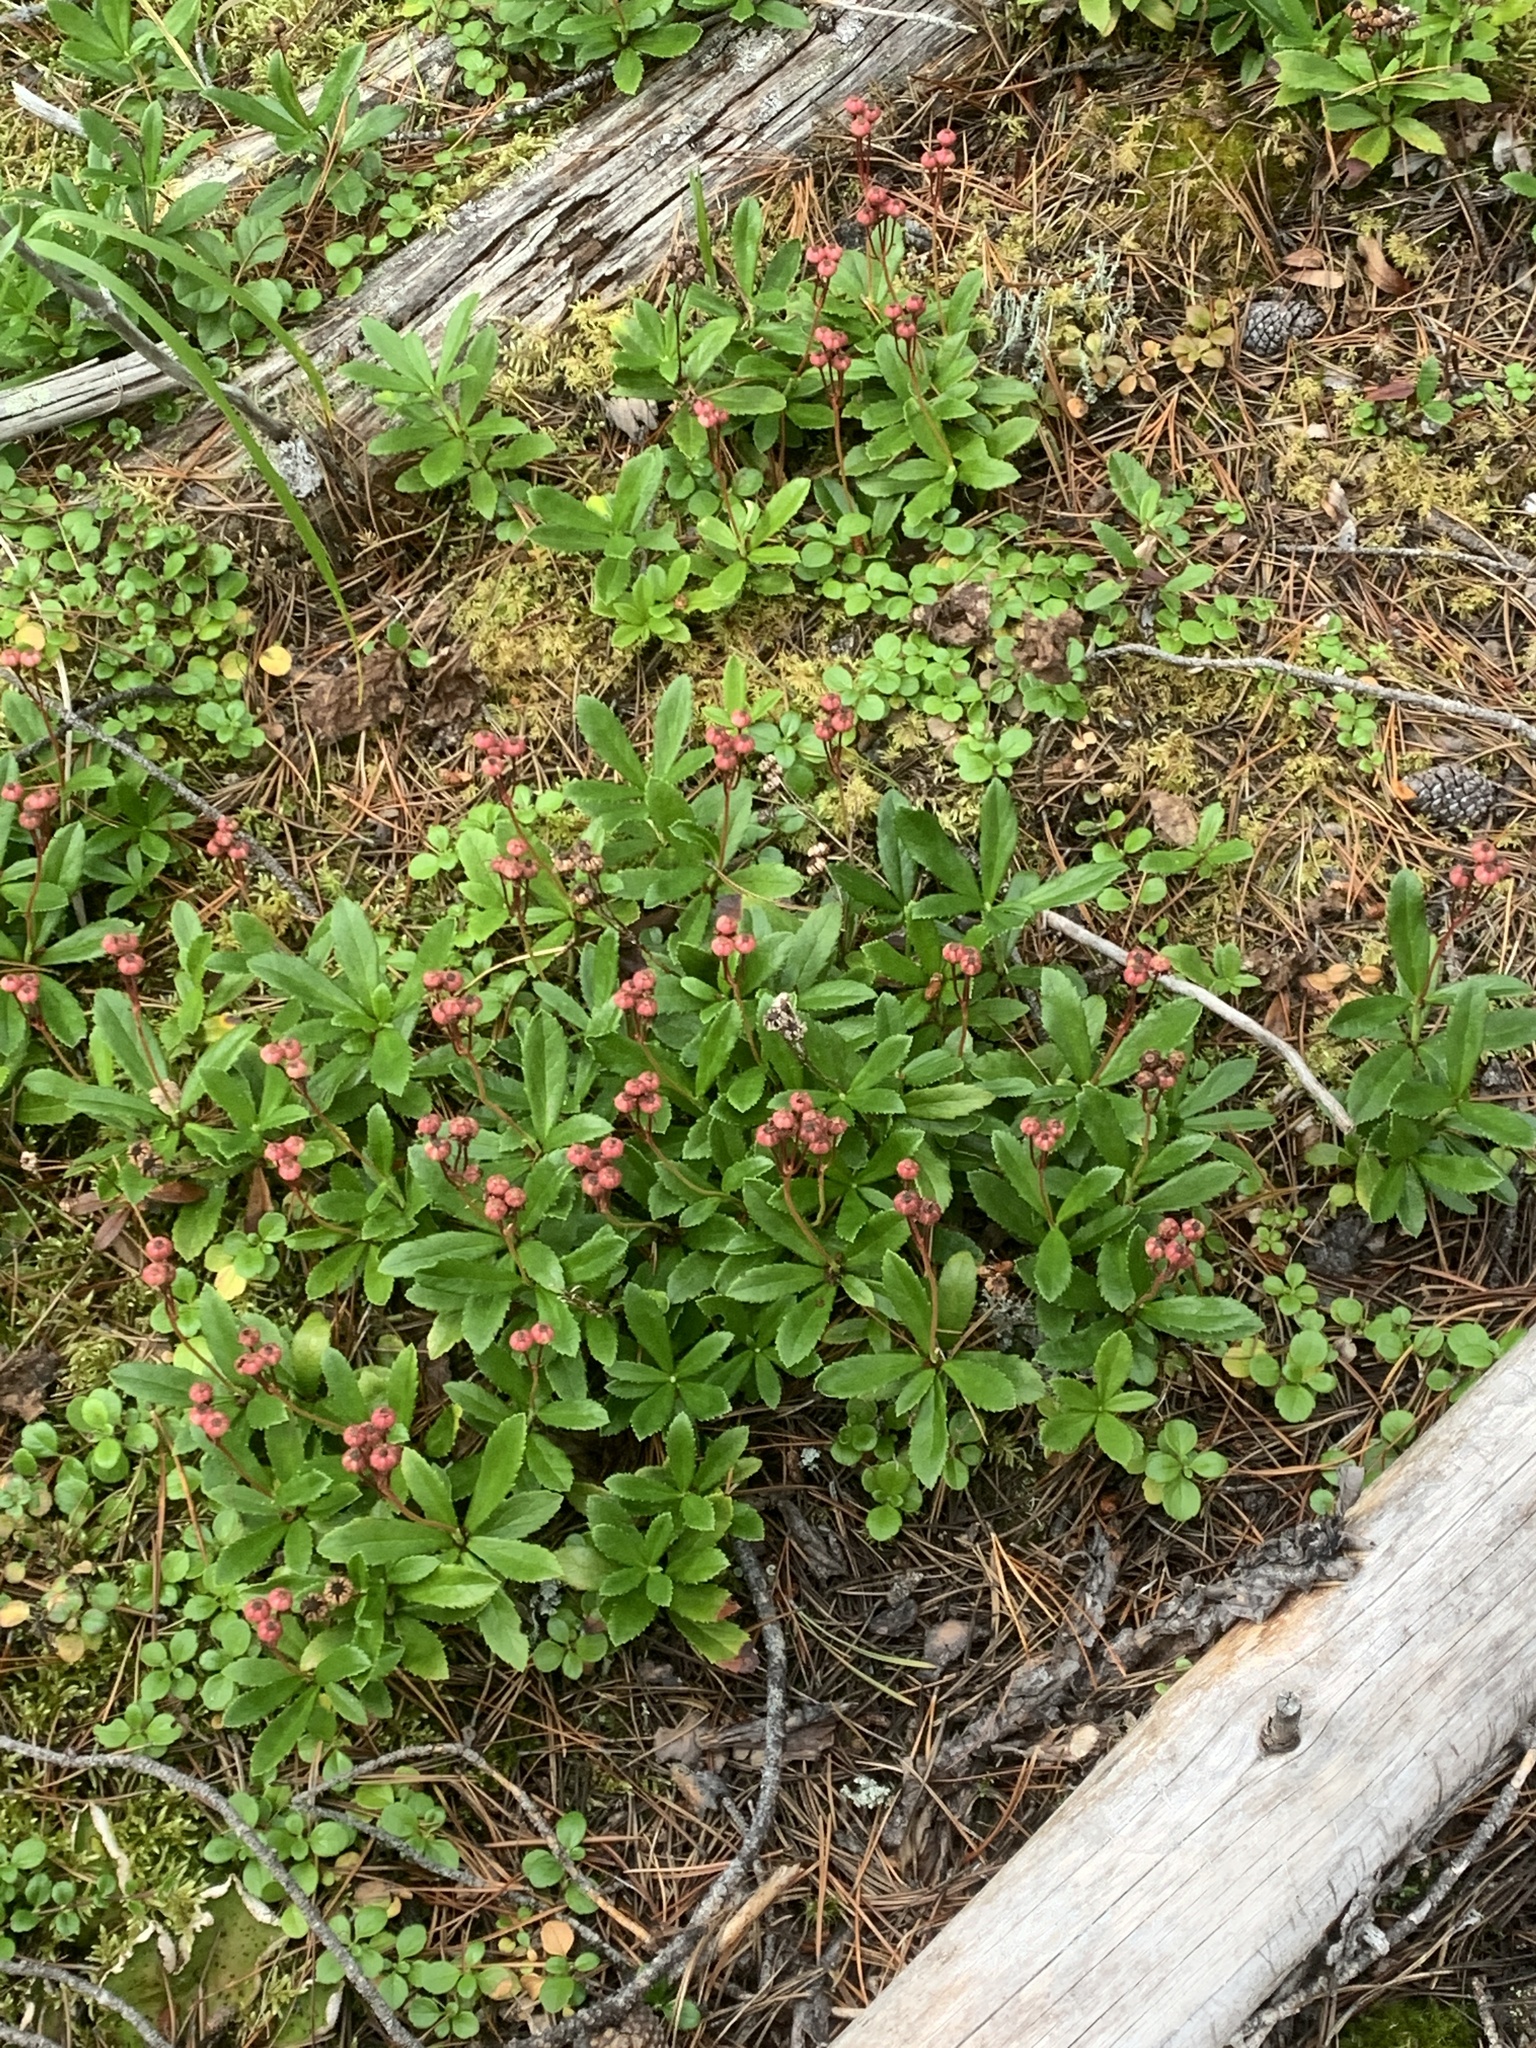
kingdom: Plantae
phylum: Tracheophyta
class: Magnoliopsida
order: Ericales
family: Ericaceae
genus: Chimaphila
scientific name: Chimaphila umbellata
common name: Pipsissewa
